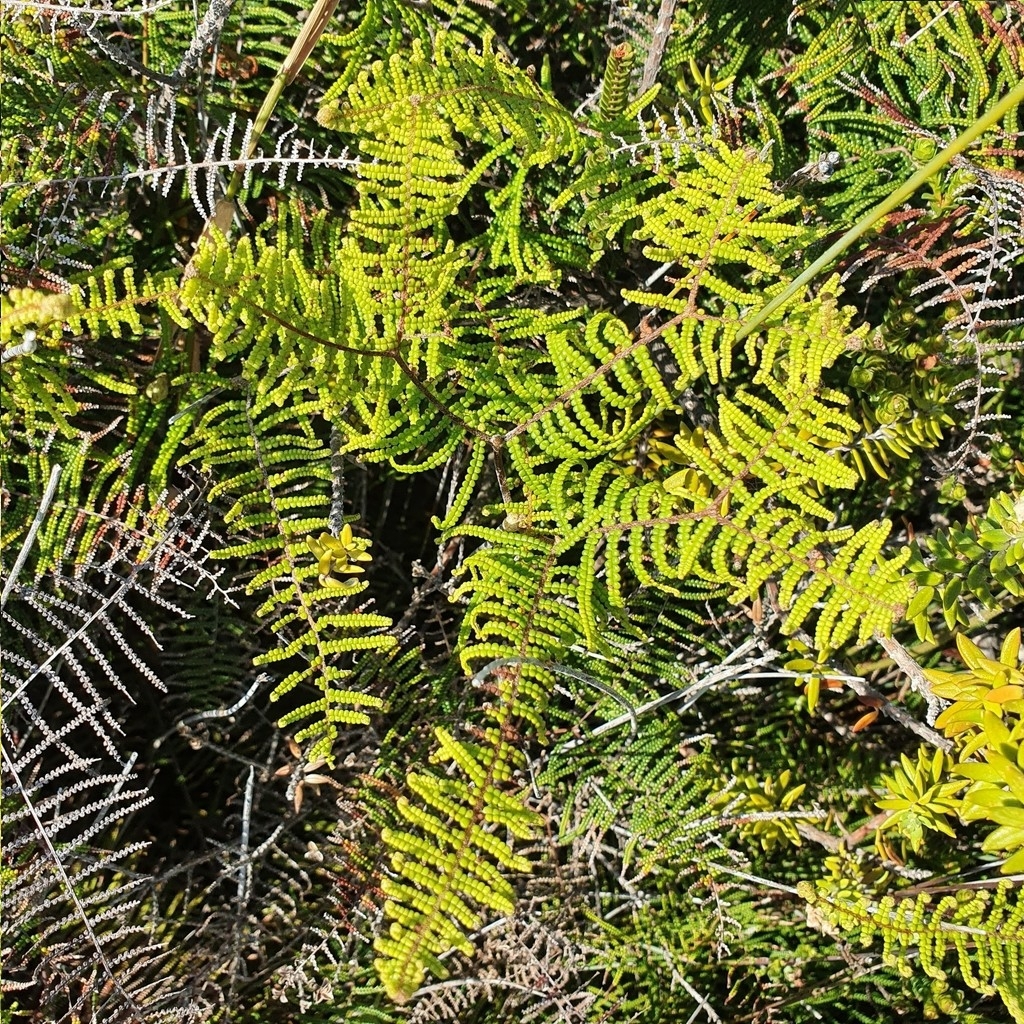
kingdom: Plantae
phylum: Tracheophyta
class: Polypodiopsida
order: Gleicheniales
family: Gleicheniaceae
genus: Gleichenia
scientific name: Gleichenia dicarpa
